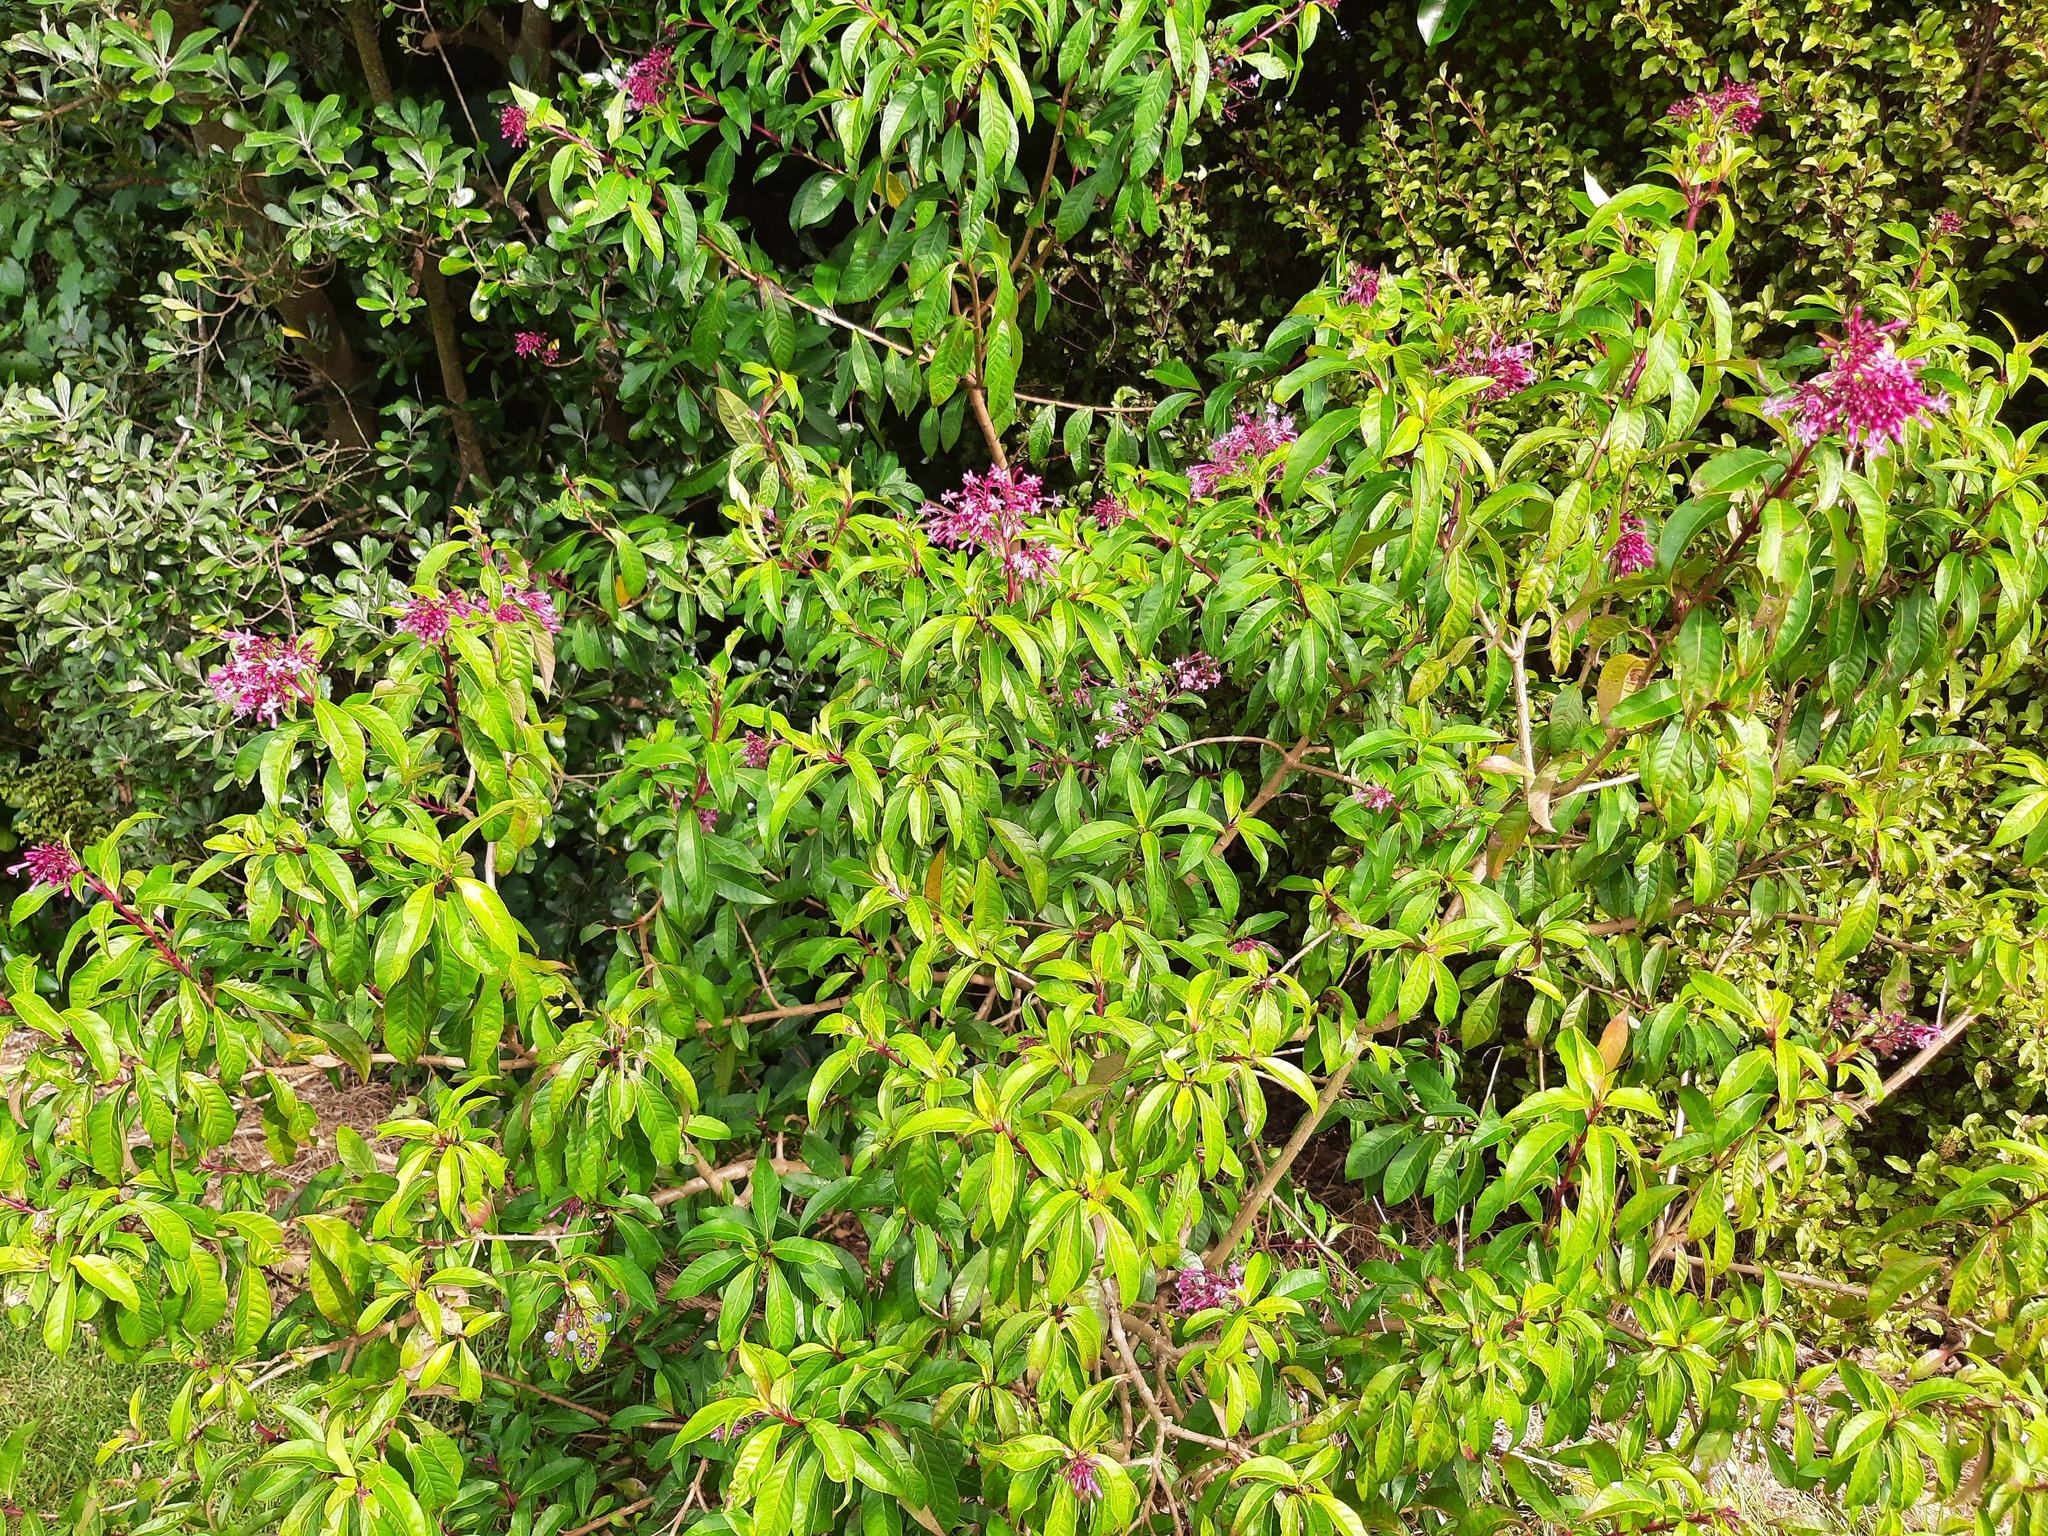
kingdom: Plantae
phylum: Tracheophyta
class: Magnoliopsida
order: Myrtales
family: Onagraceae
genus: Fuchsia
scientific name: Fuchsia paniculata
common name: Shrubby fuchsia
